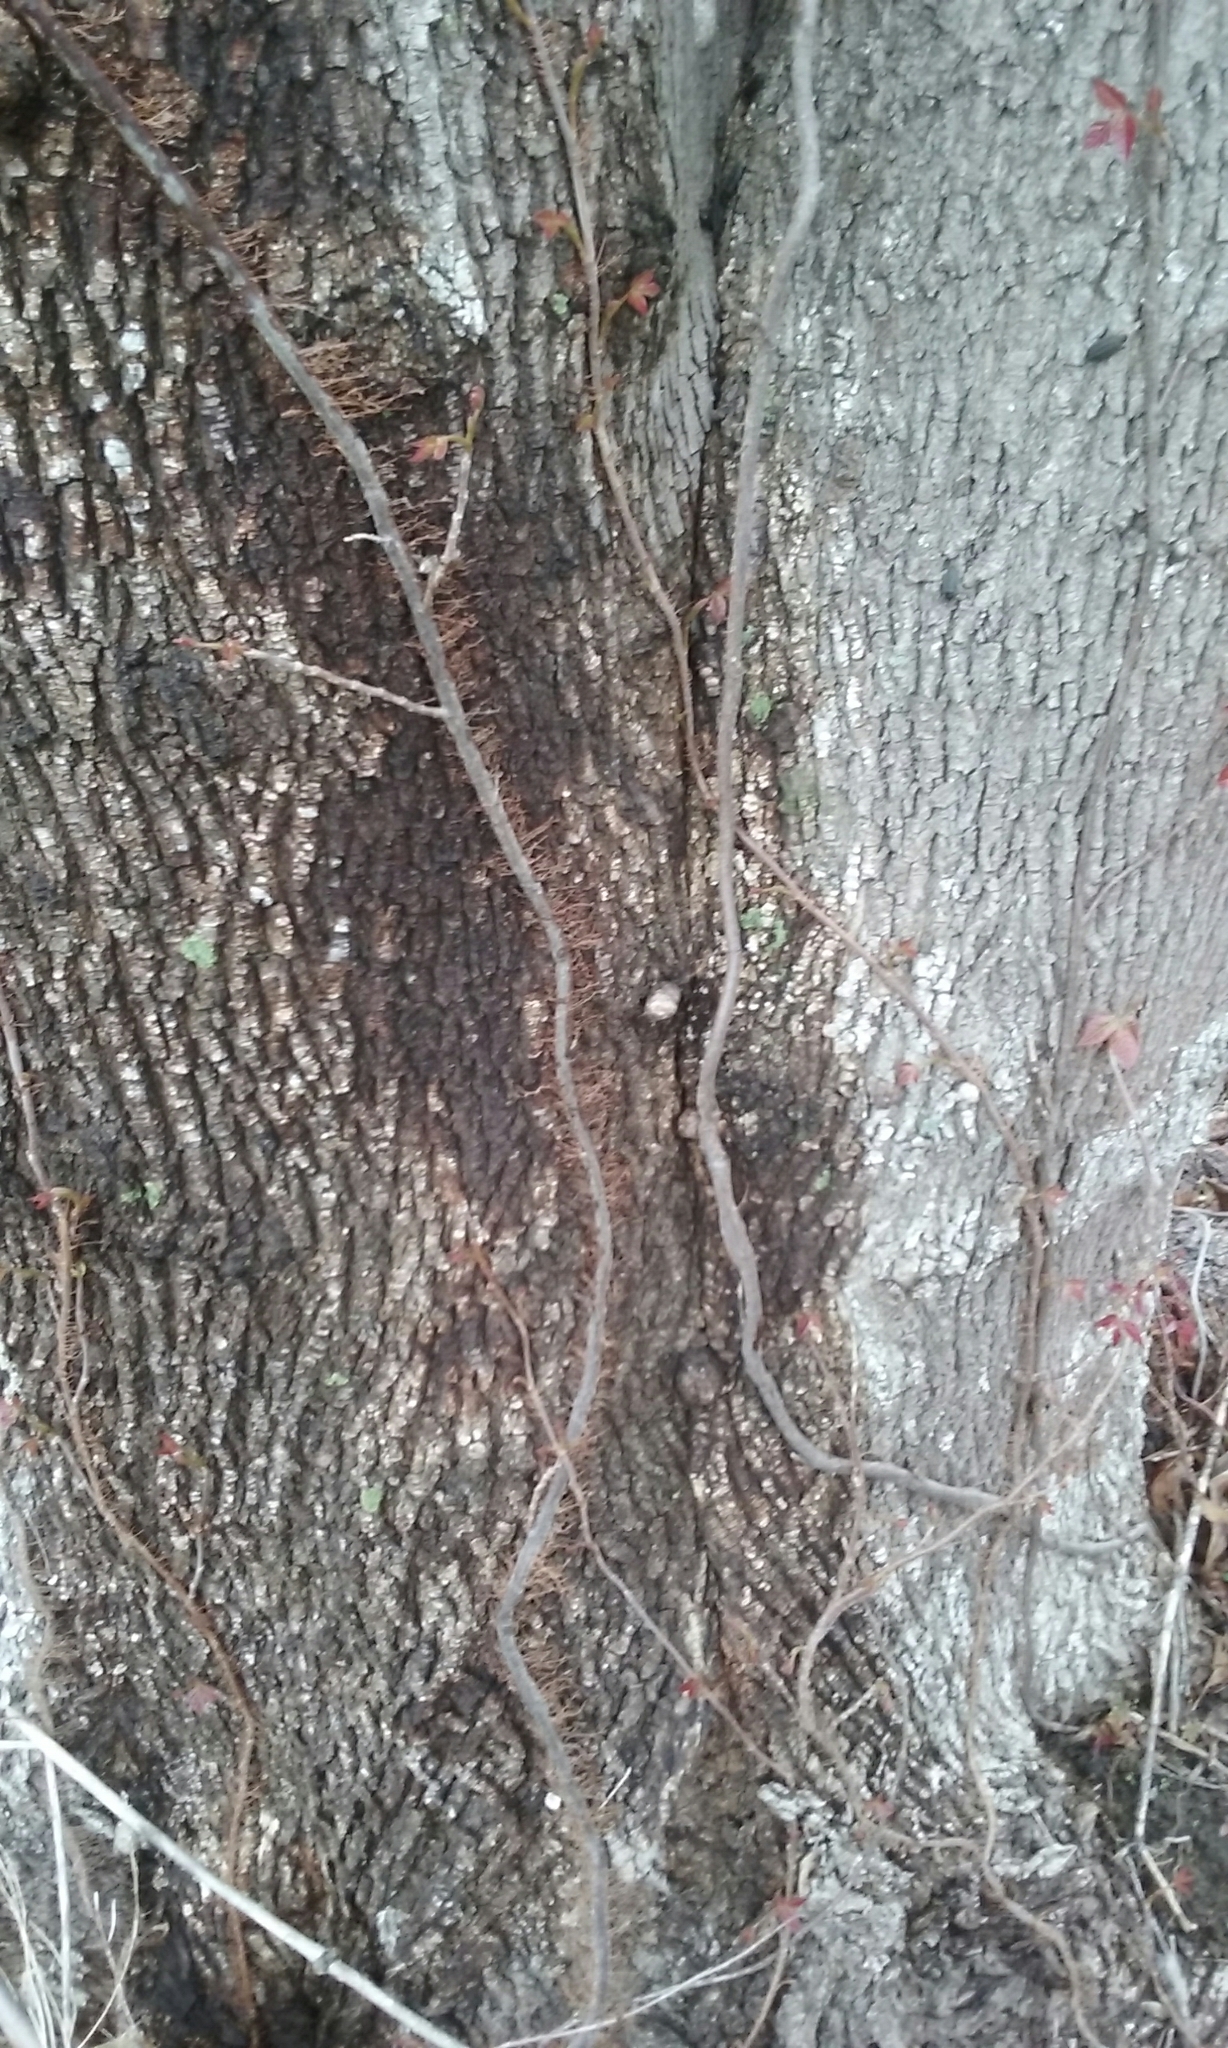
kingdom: Plantae
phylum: Tracheophyta
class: Magnoliopsida
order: Sapindales
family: Anacardiaceae
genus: Toxicodendron
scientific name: Toxicodendron radicans
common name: Poison ivy
